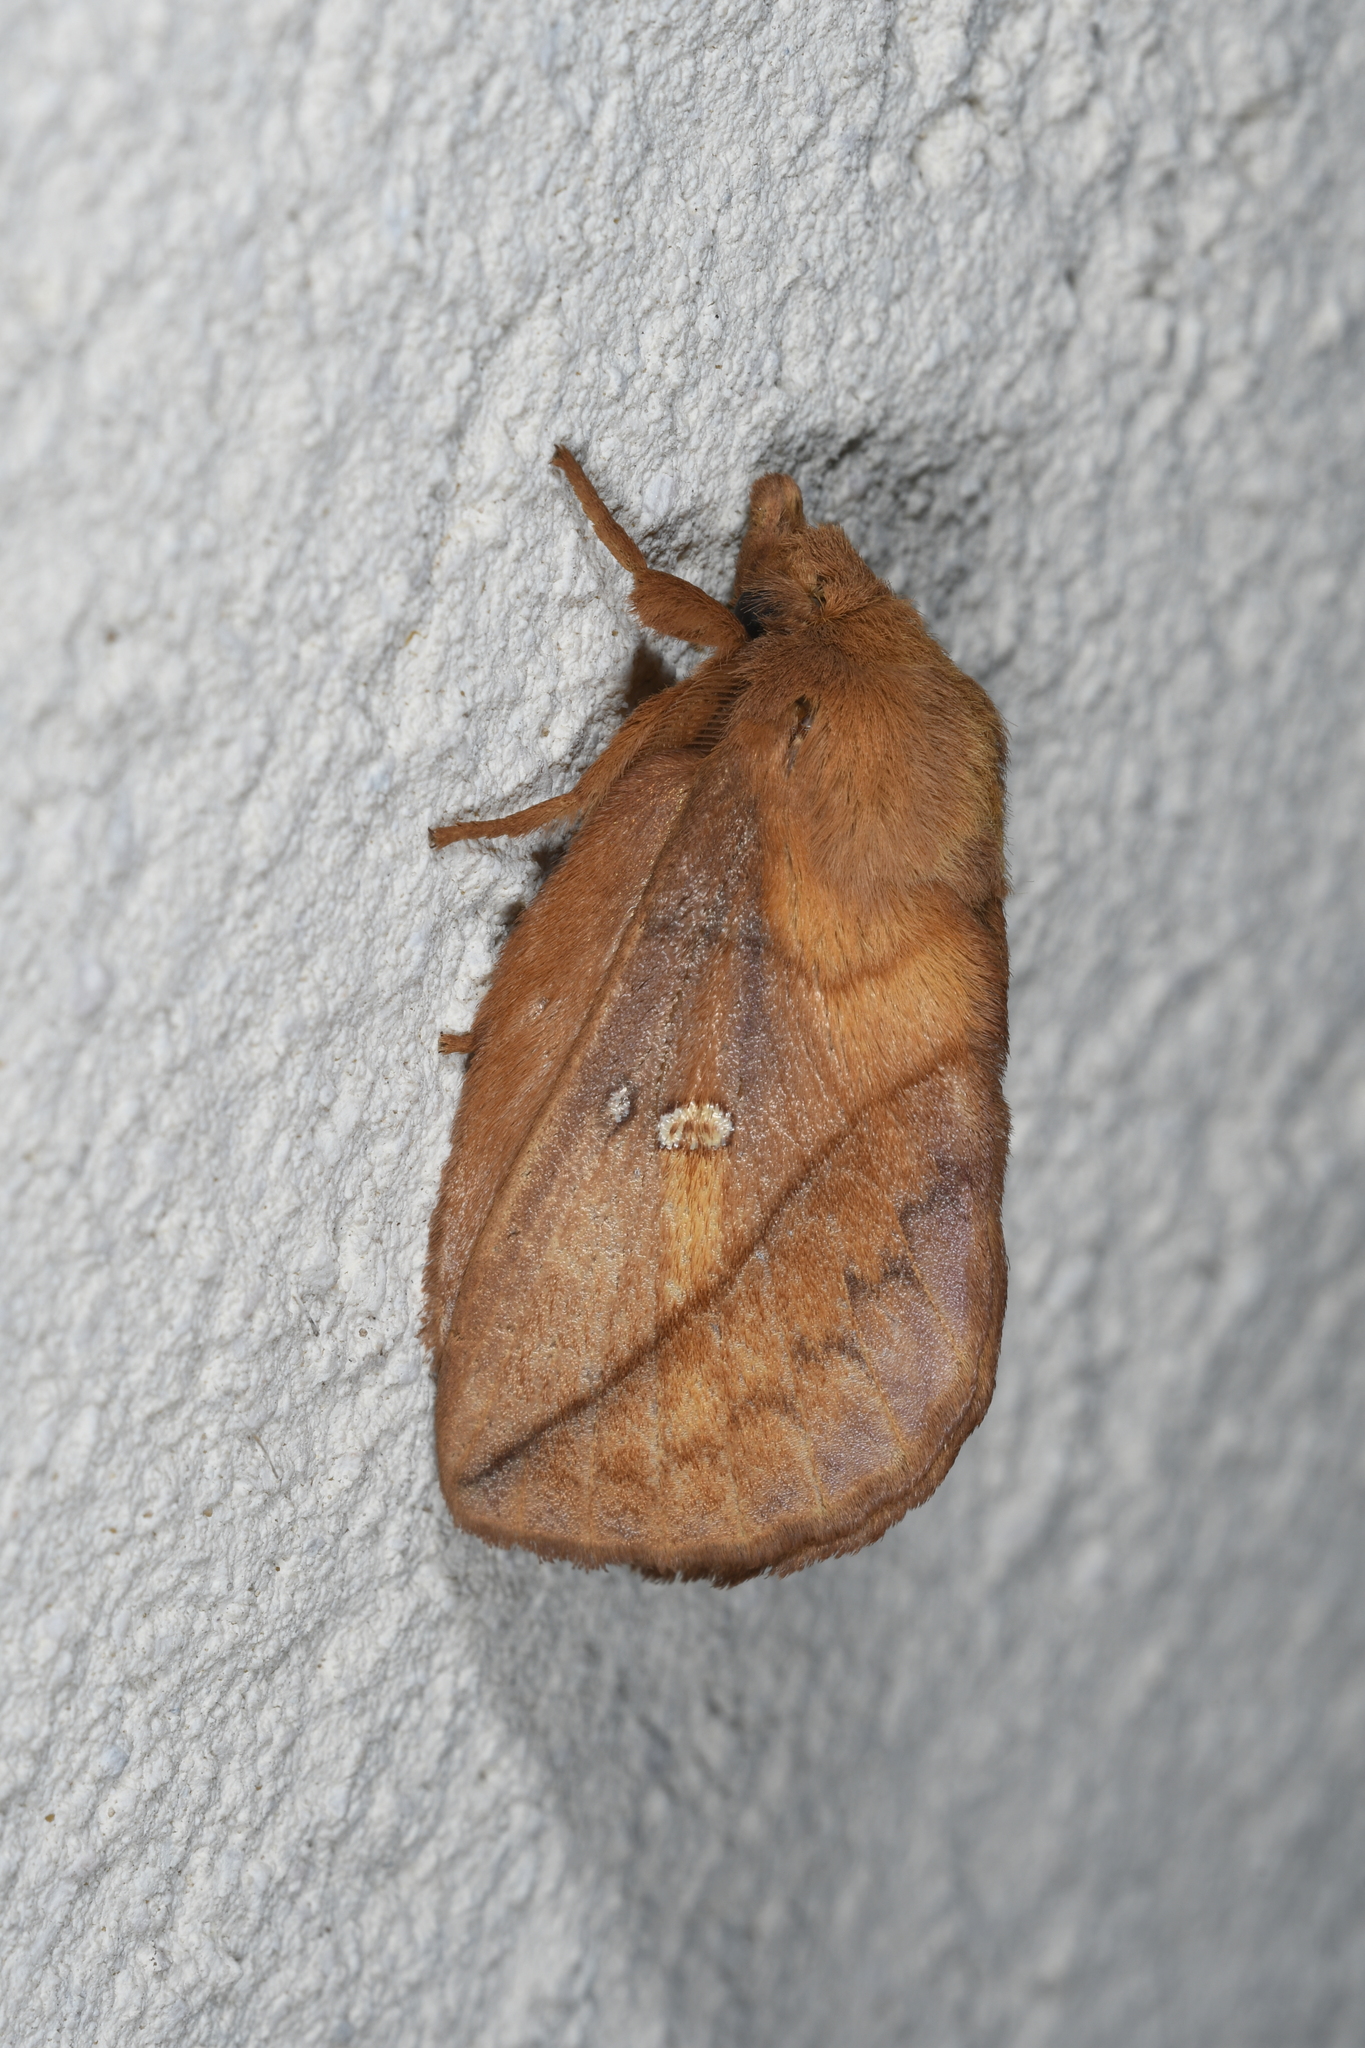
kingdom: Animalia
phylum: Arthropoda
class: Insecta
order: Lepidoptera
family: Lasiocampidae
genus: Euthrix
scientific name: Euthrix potatoria
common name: Drinker
